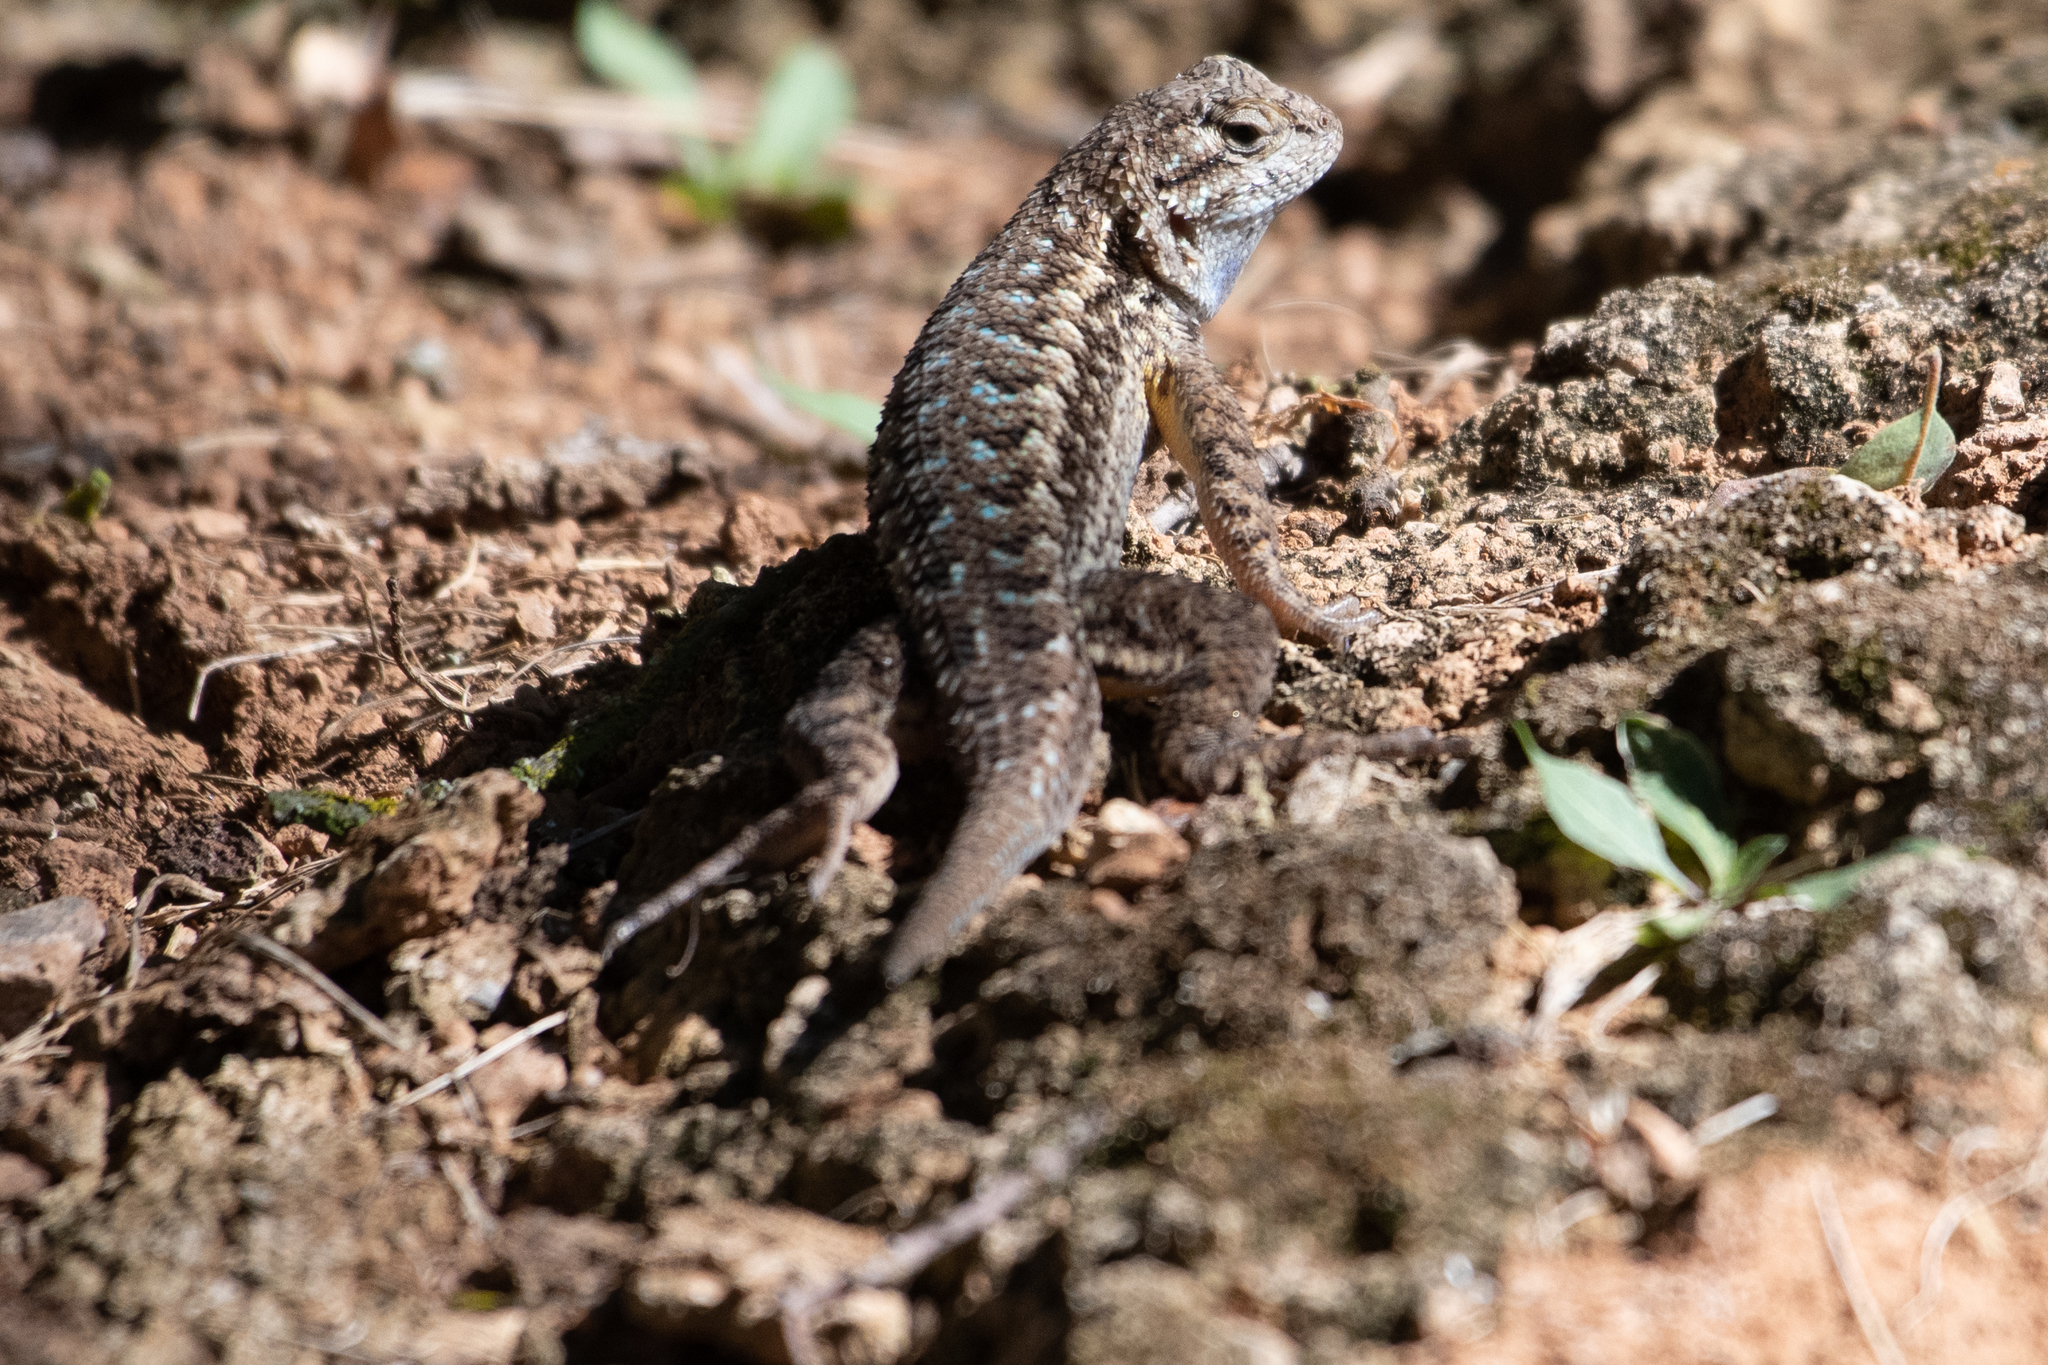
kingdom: Animalia
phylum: Chordata
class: Squamata
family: Phrynosomatidae
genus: Sceloporus
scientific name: Sceloporus occidentalis
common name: Western fence lizard
